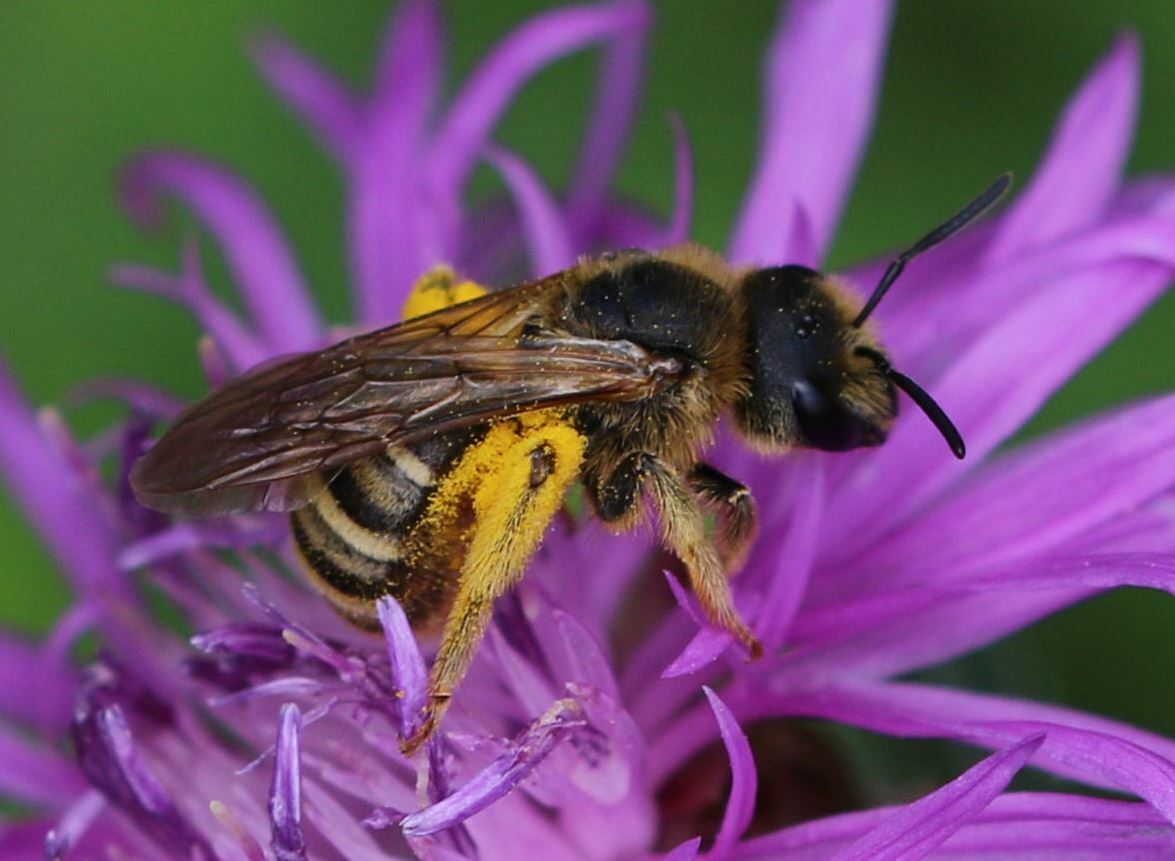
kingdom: Animalia
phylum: Arthropoda
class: Insecta
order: Hymenoptera
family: Halictidae
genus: Halictus
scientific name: Halictus scabiosae
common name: Great banded furrow bee
